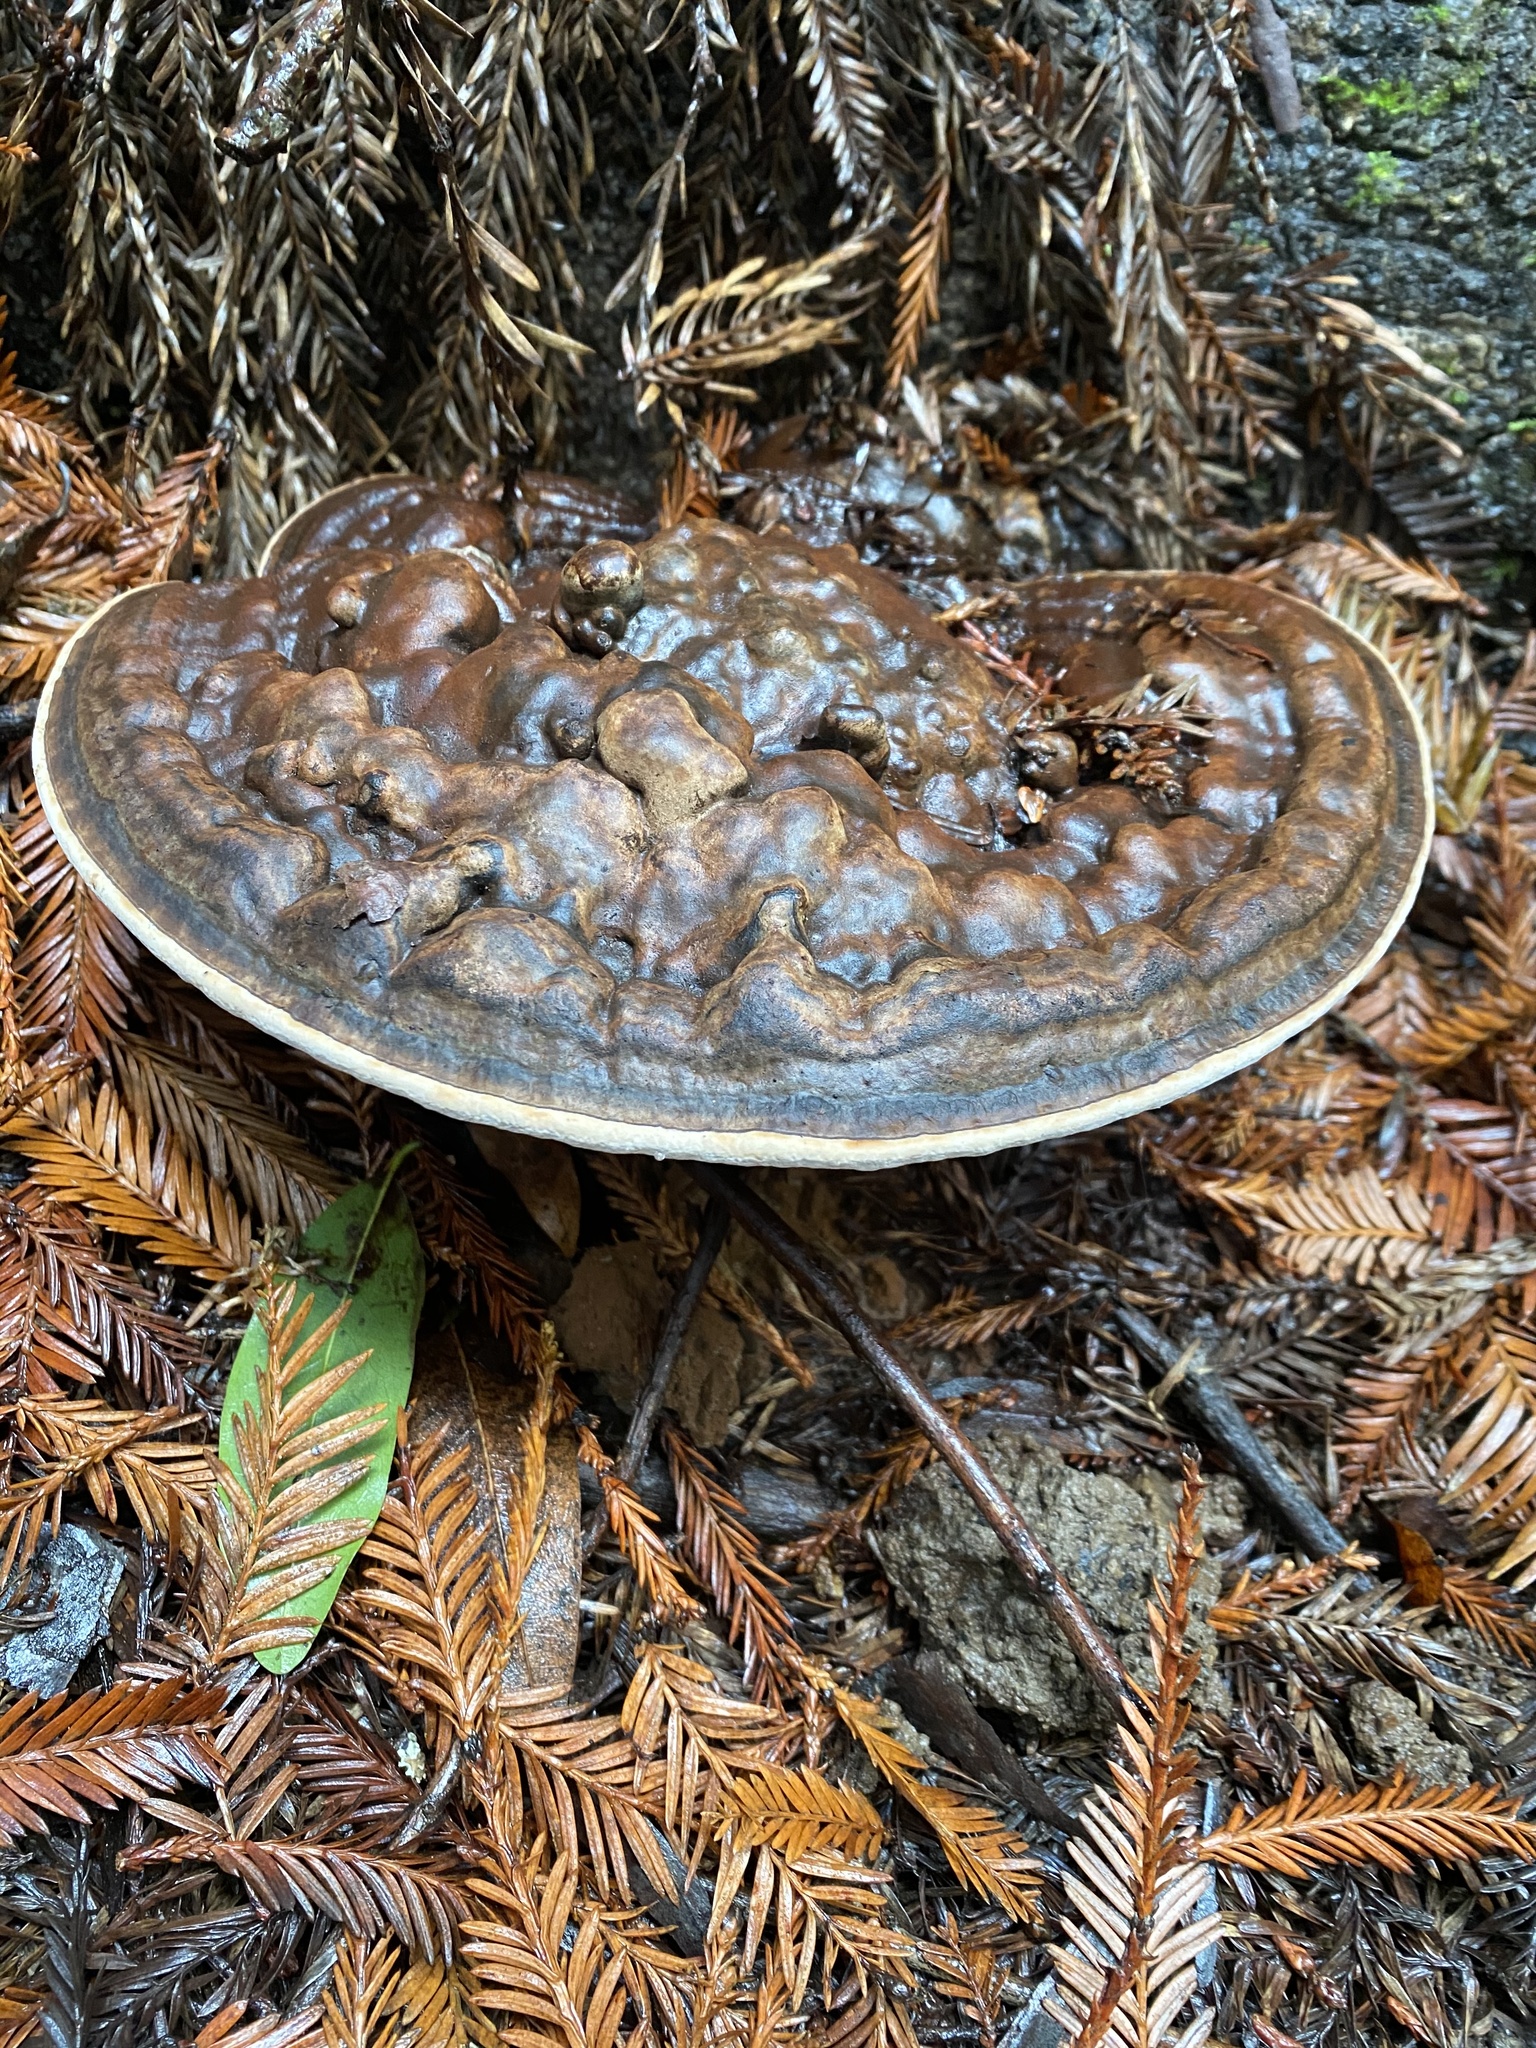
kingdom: Fungi
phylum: Basidiomycota
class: Agaricomycetes
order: Polyporales
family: Polyporaceae
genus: Ganoderma
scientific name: Ganoderma brownii
